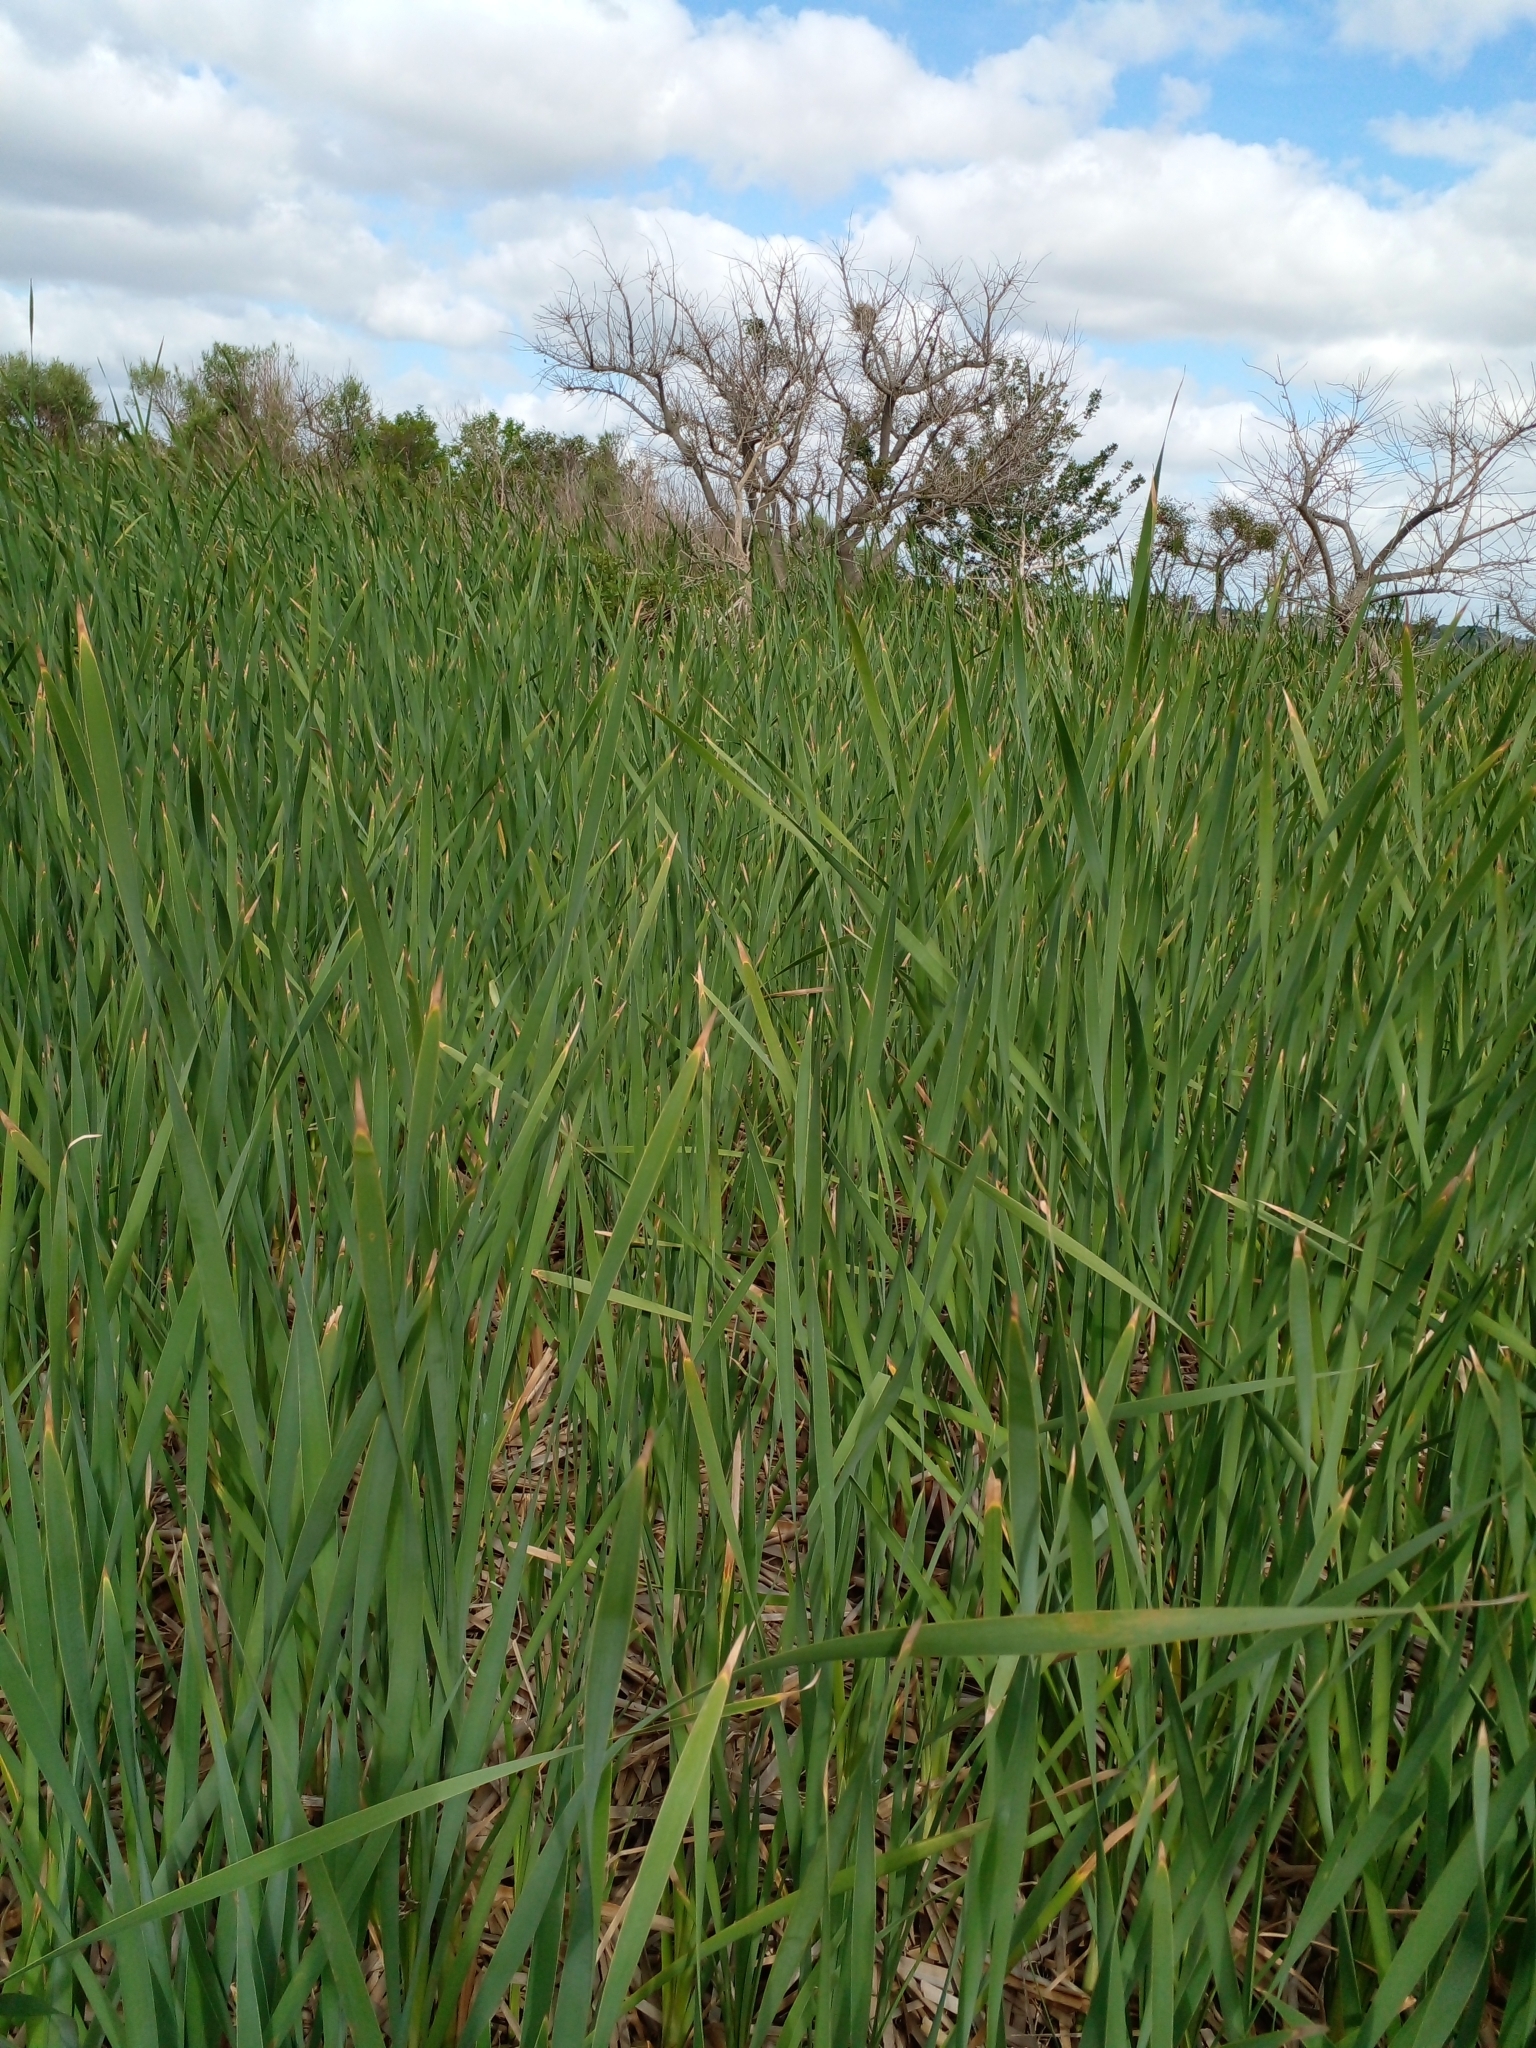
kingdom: Plantae
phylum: Tracheophyta
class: Liliopsida
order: Poales
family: Typhaceae
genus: Typha
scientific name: Typha latifolia
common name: Broadleaf cattail
